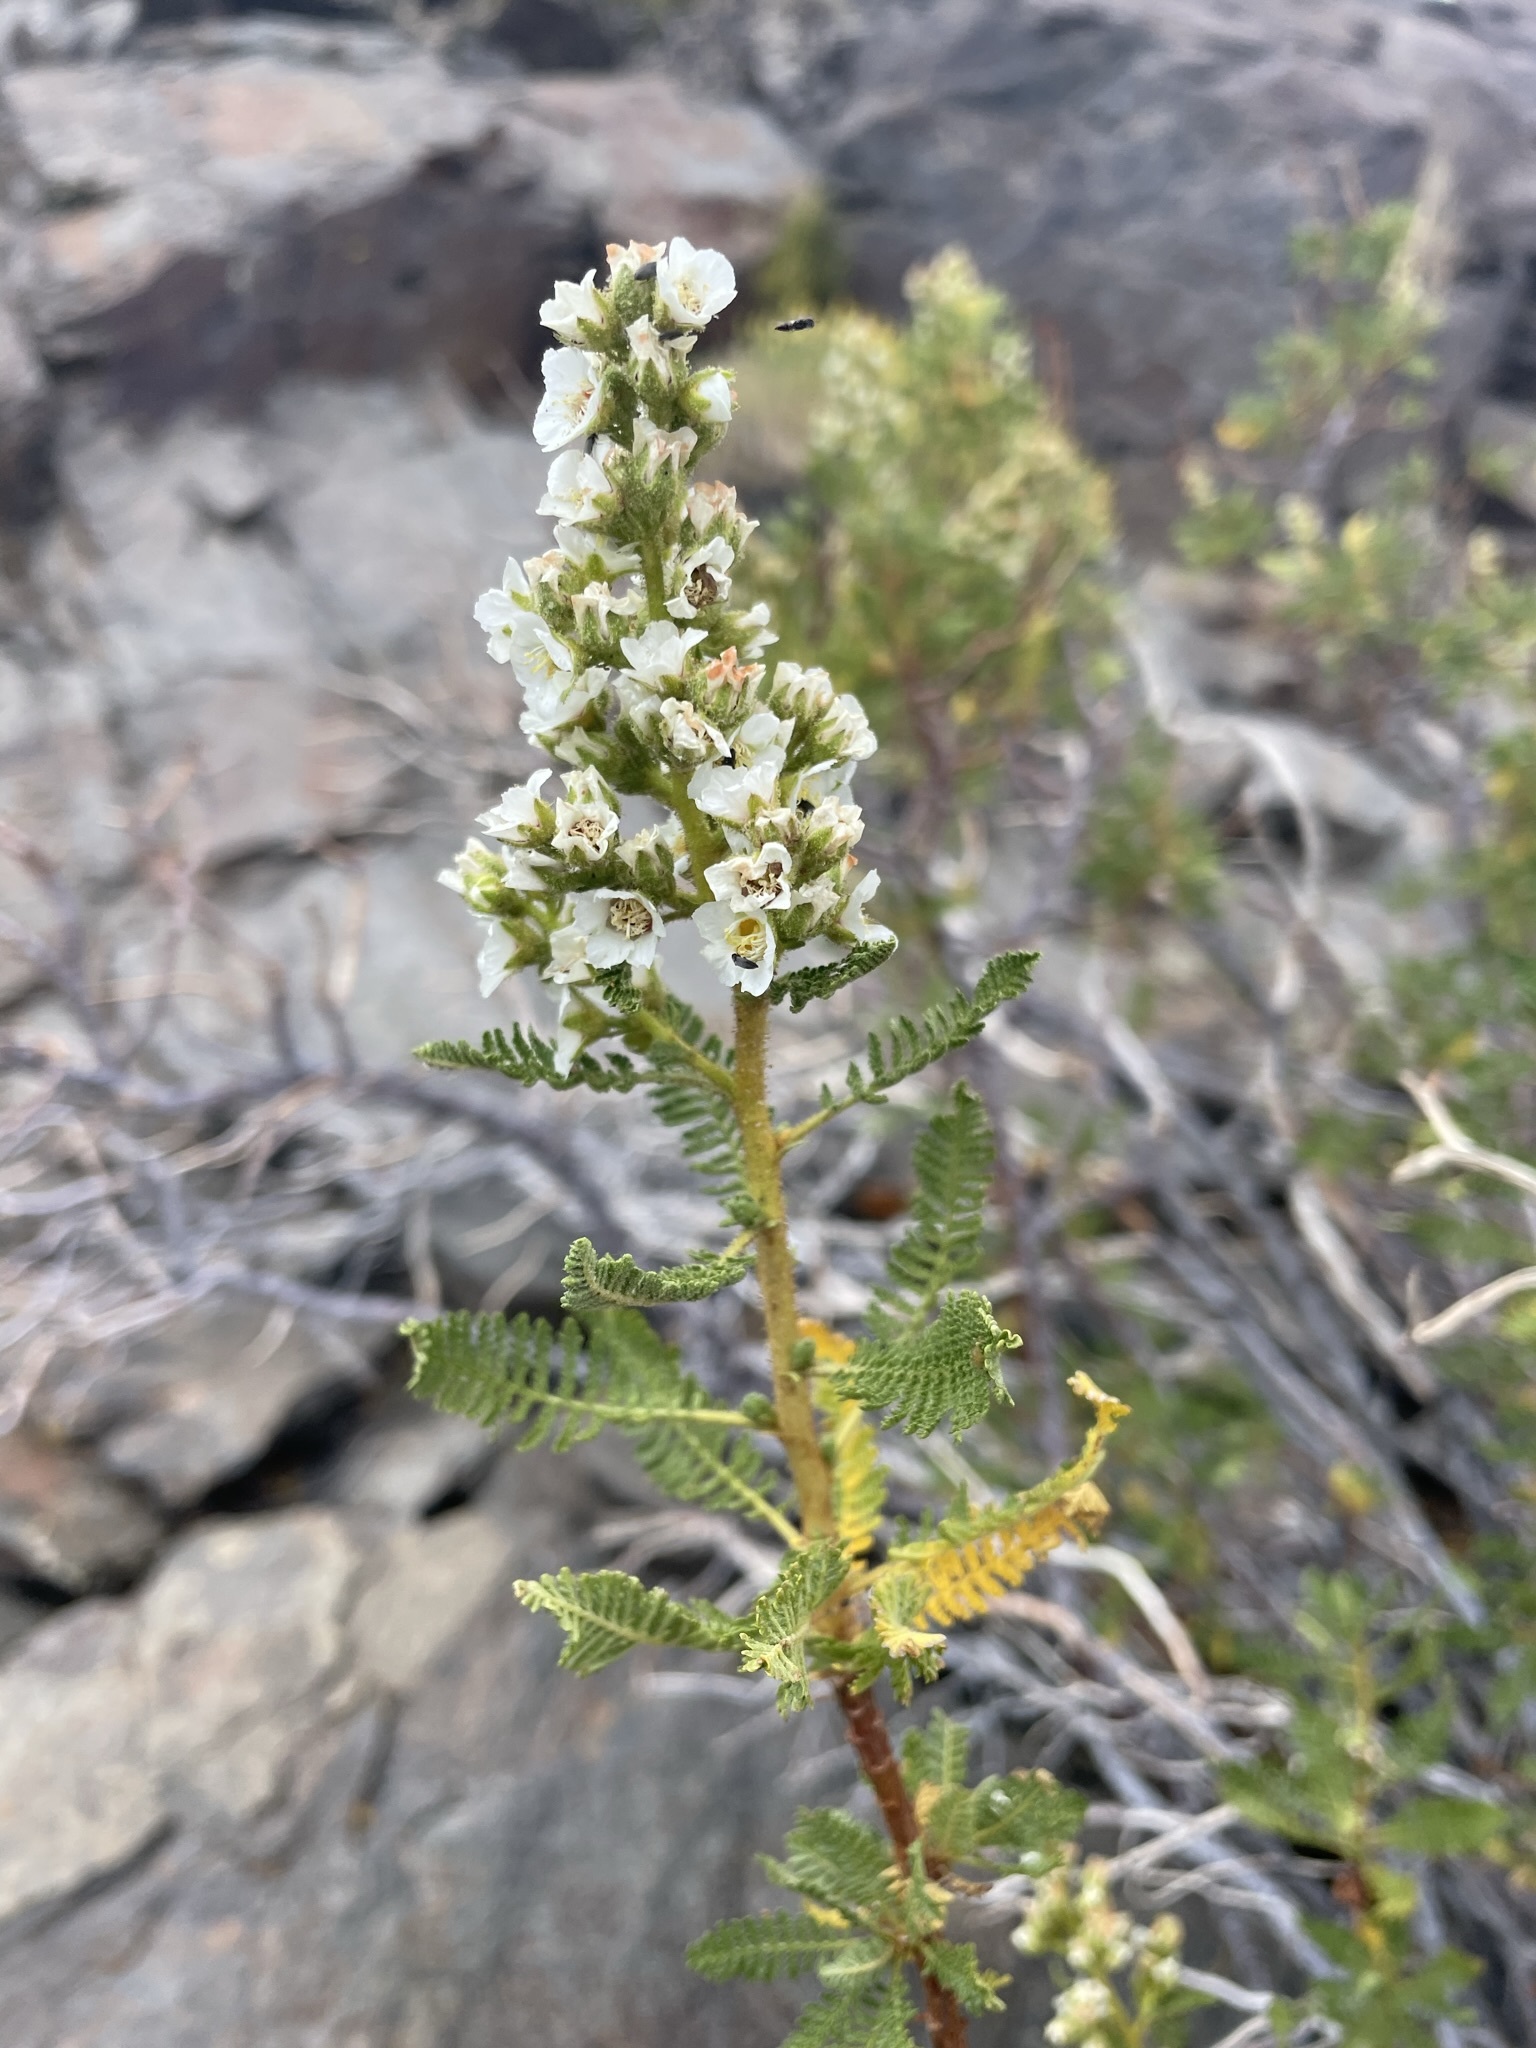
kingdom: Plantae
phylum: Tracheophyta
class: Magnoliopsida
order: Rosales
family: Rosaceae
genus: Chamaebatiaria
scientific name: Chamaebatiaria millefolium
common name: Fernbush
